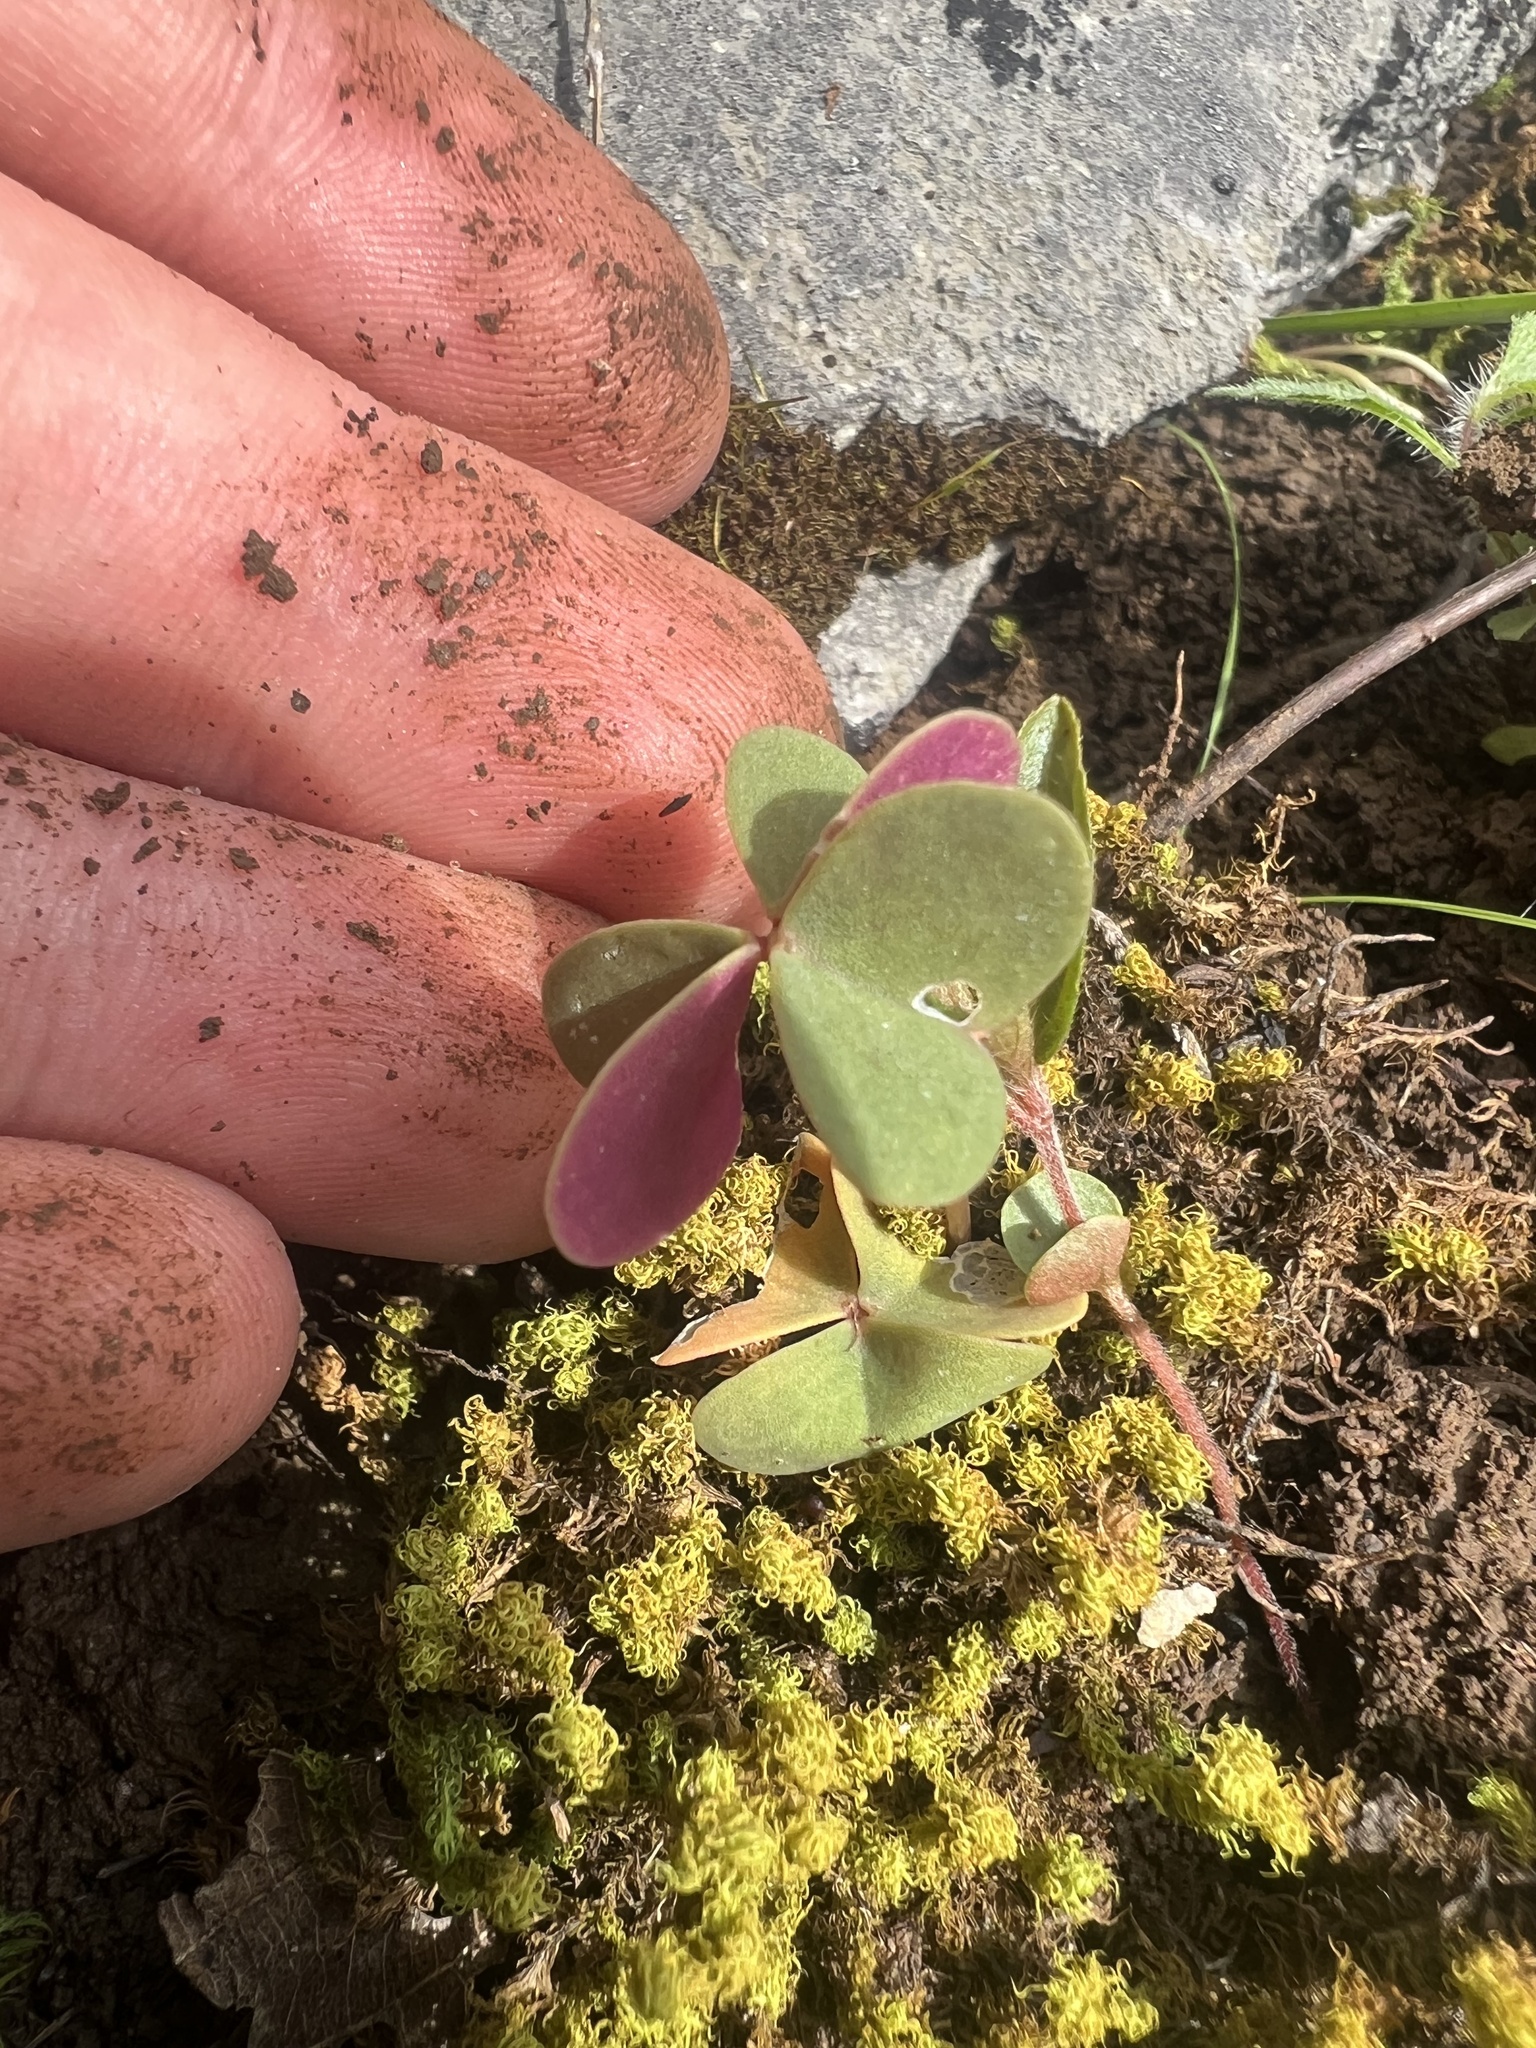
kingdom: Plantae
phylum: Tracheophyta
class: Magnoliopsida
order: Oxalidales
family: Oxalidaceae
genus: Oxalis
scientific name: Oxalis violacea
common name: Violet wood-sorrel
